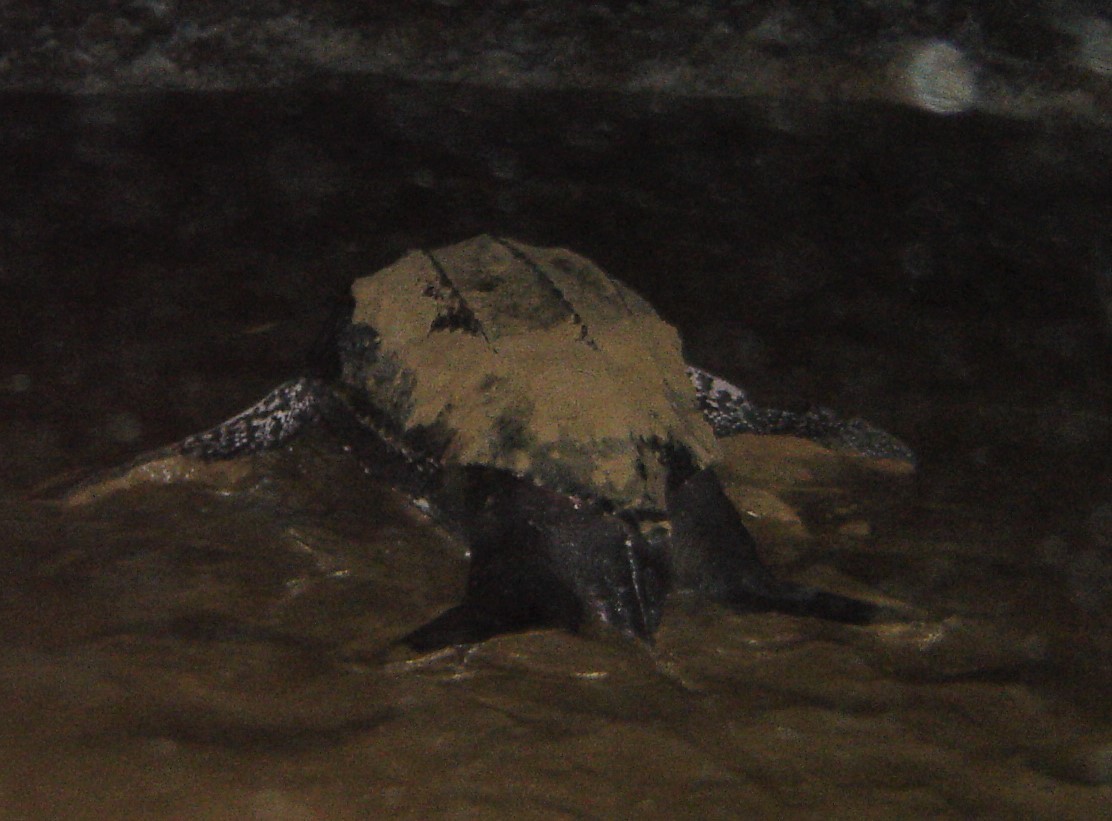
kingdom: Animalia
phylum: Chordata
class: Testudines
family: Dermochelyidae
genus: Dermochelys
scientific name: Dermochelys coriacea
